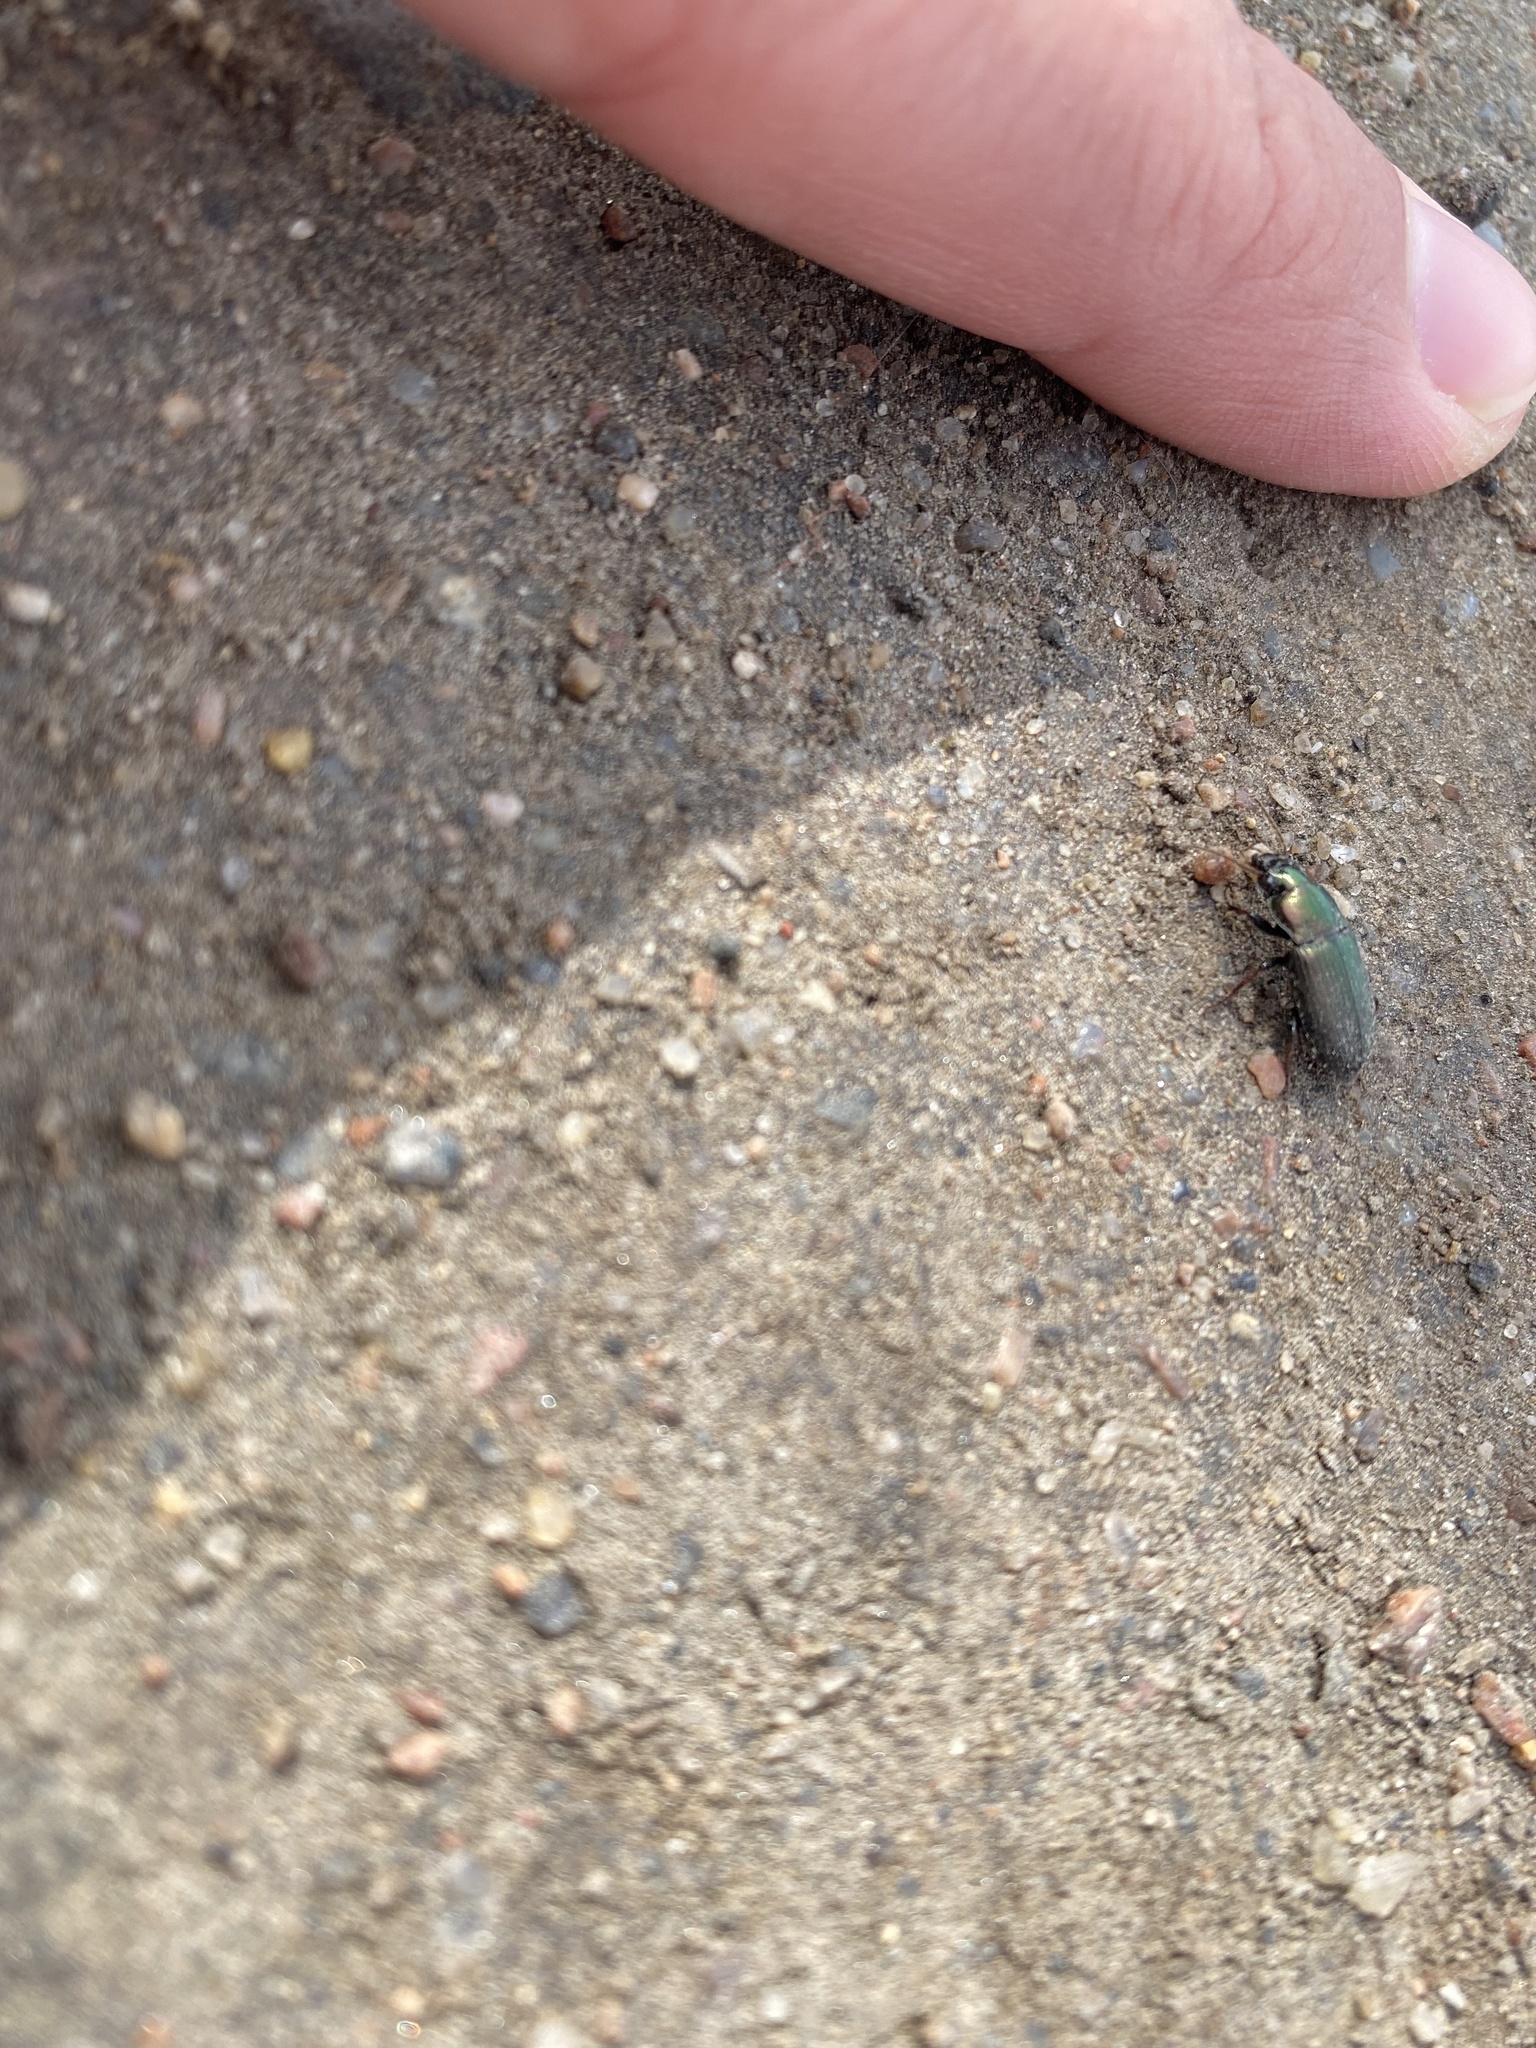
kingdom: Animalia
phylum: Arthropoda
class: Insecta
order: Coleoptera
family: Carabidae
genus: Harpalus
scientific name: Harpalus
